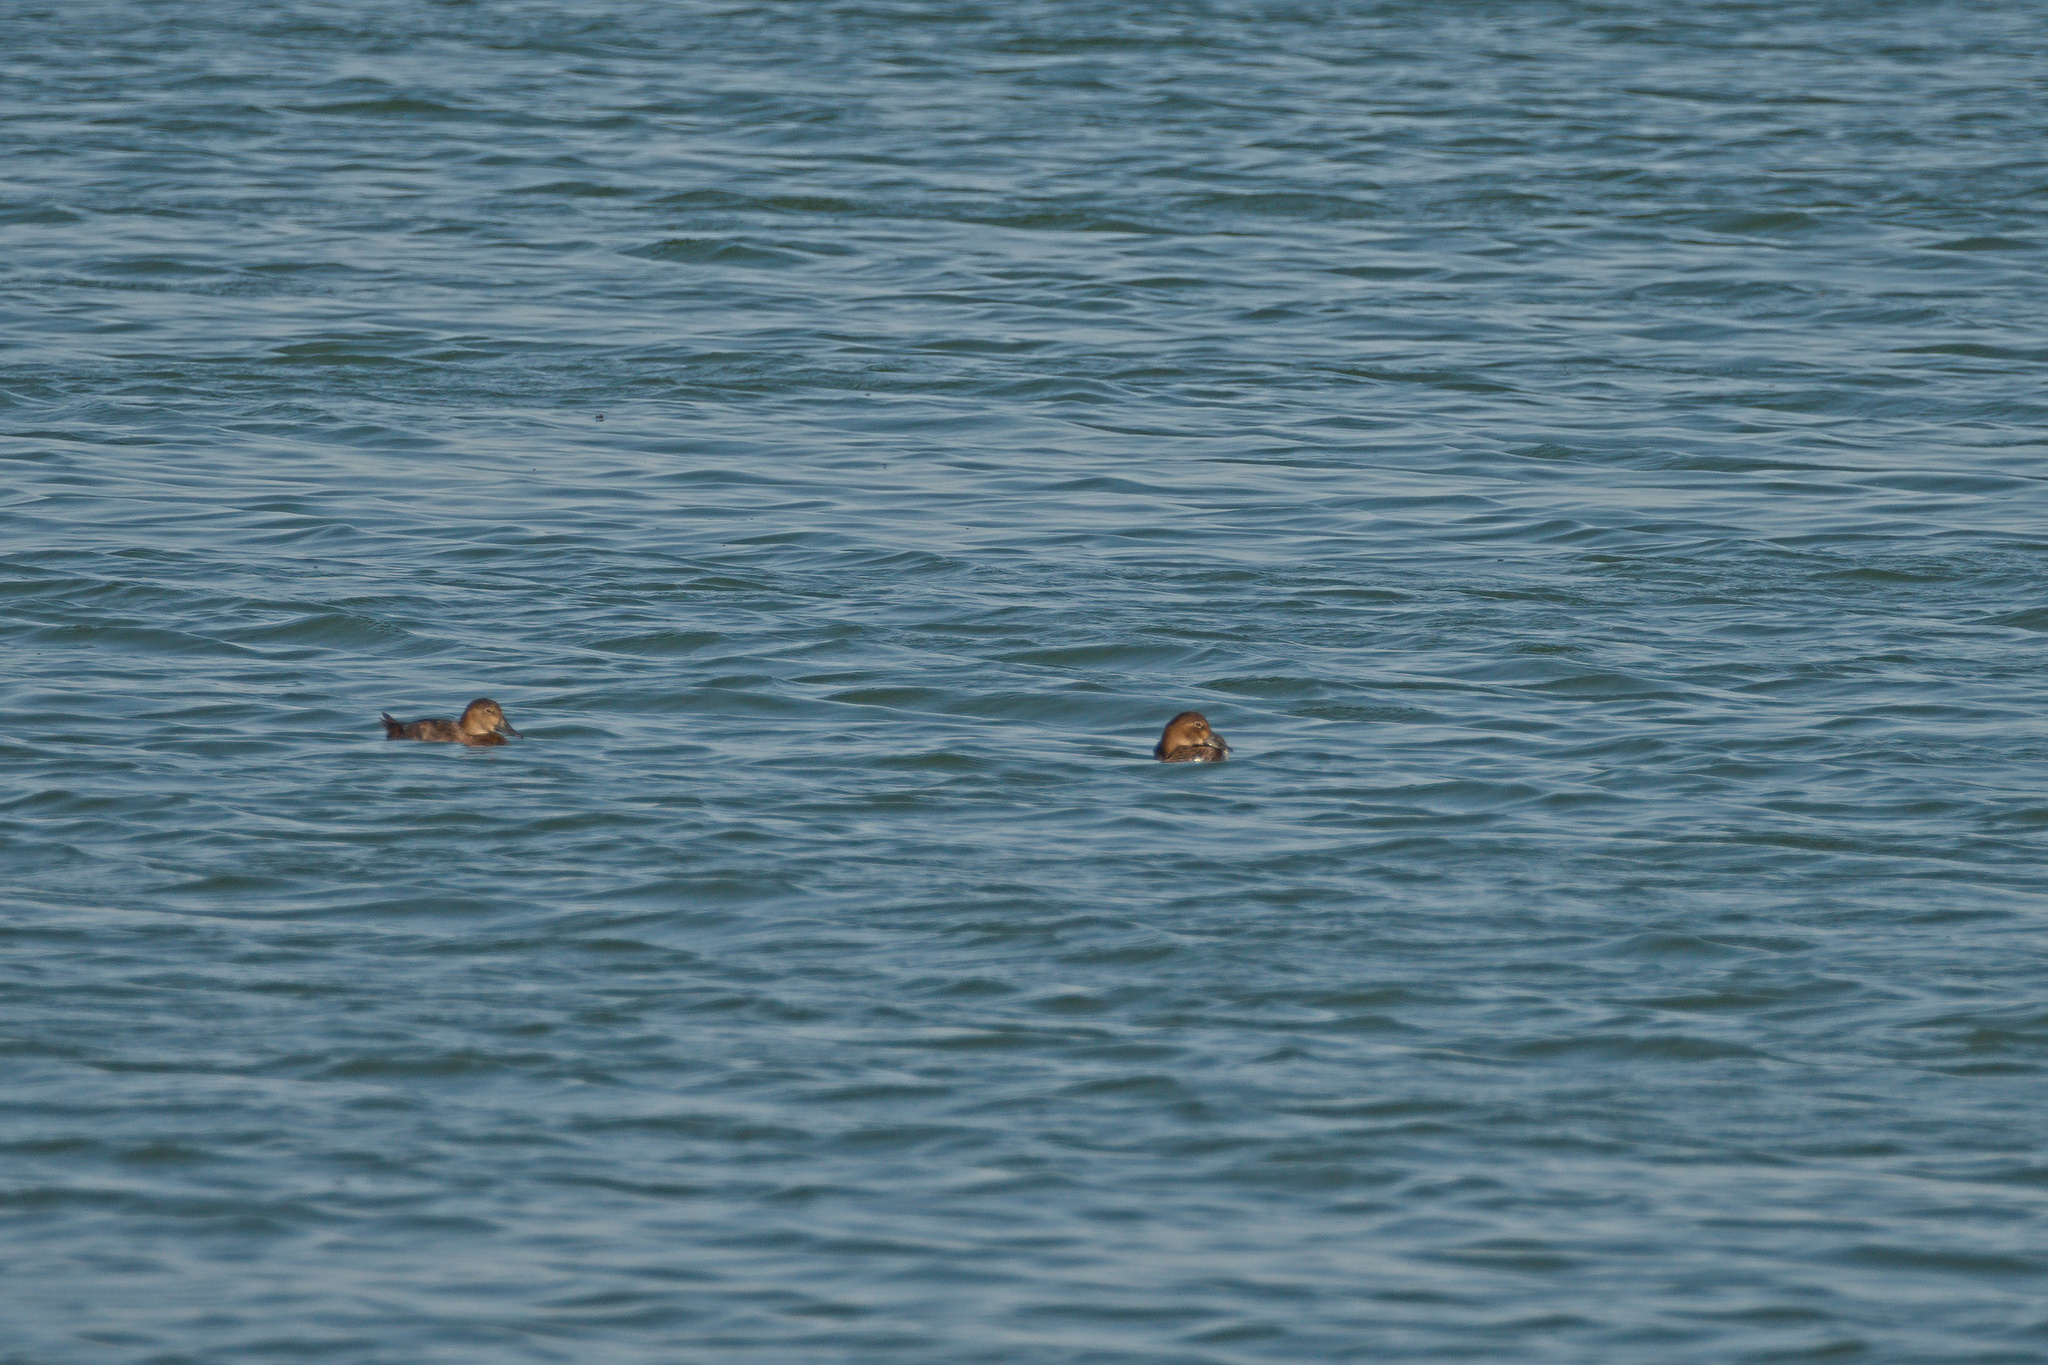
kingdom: Animalia
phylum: Chordata
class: Aves
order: Anseriformes
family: Anatidae
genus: Aythya
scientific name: Aythya ferina
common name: Common pochard
